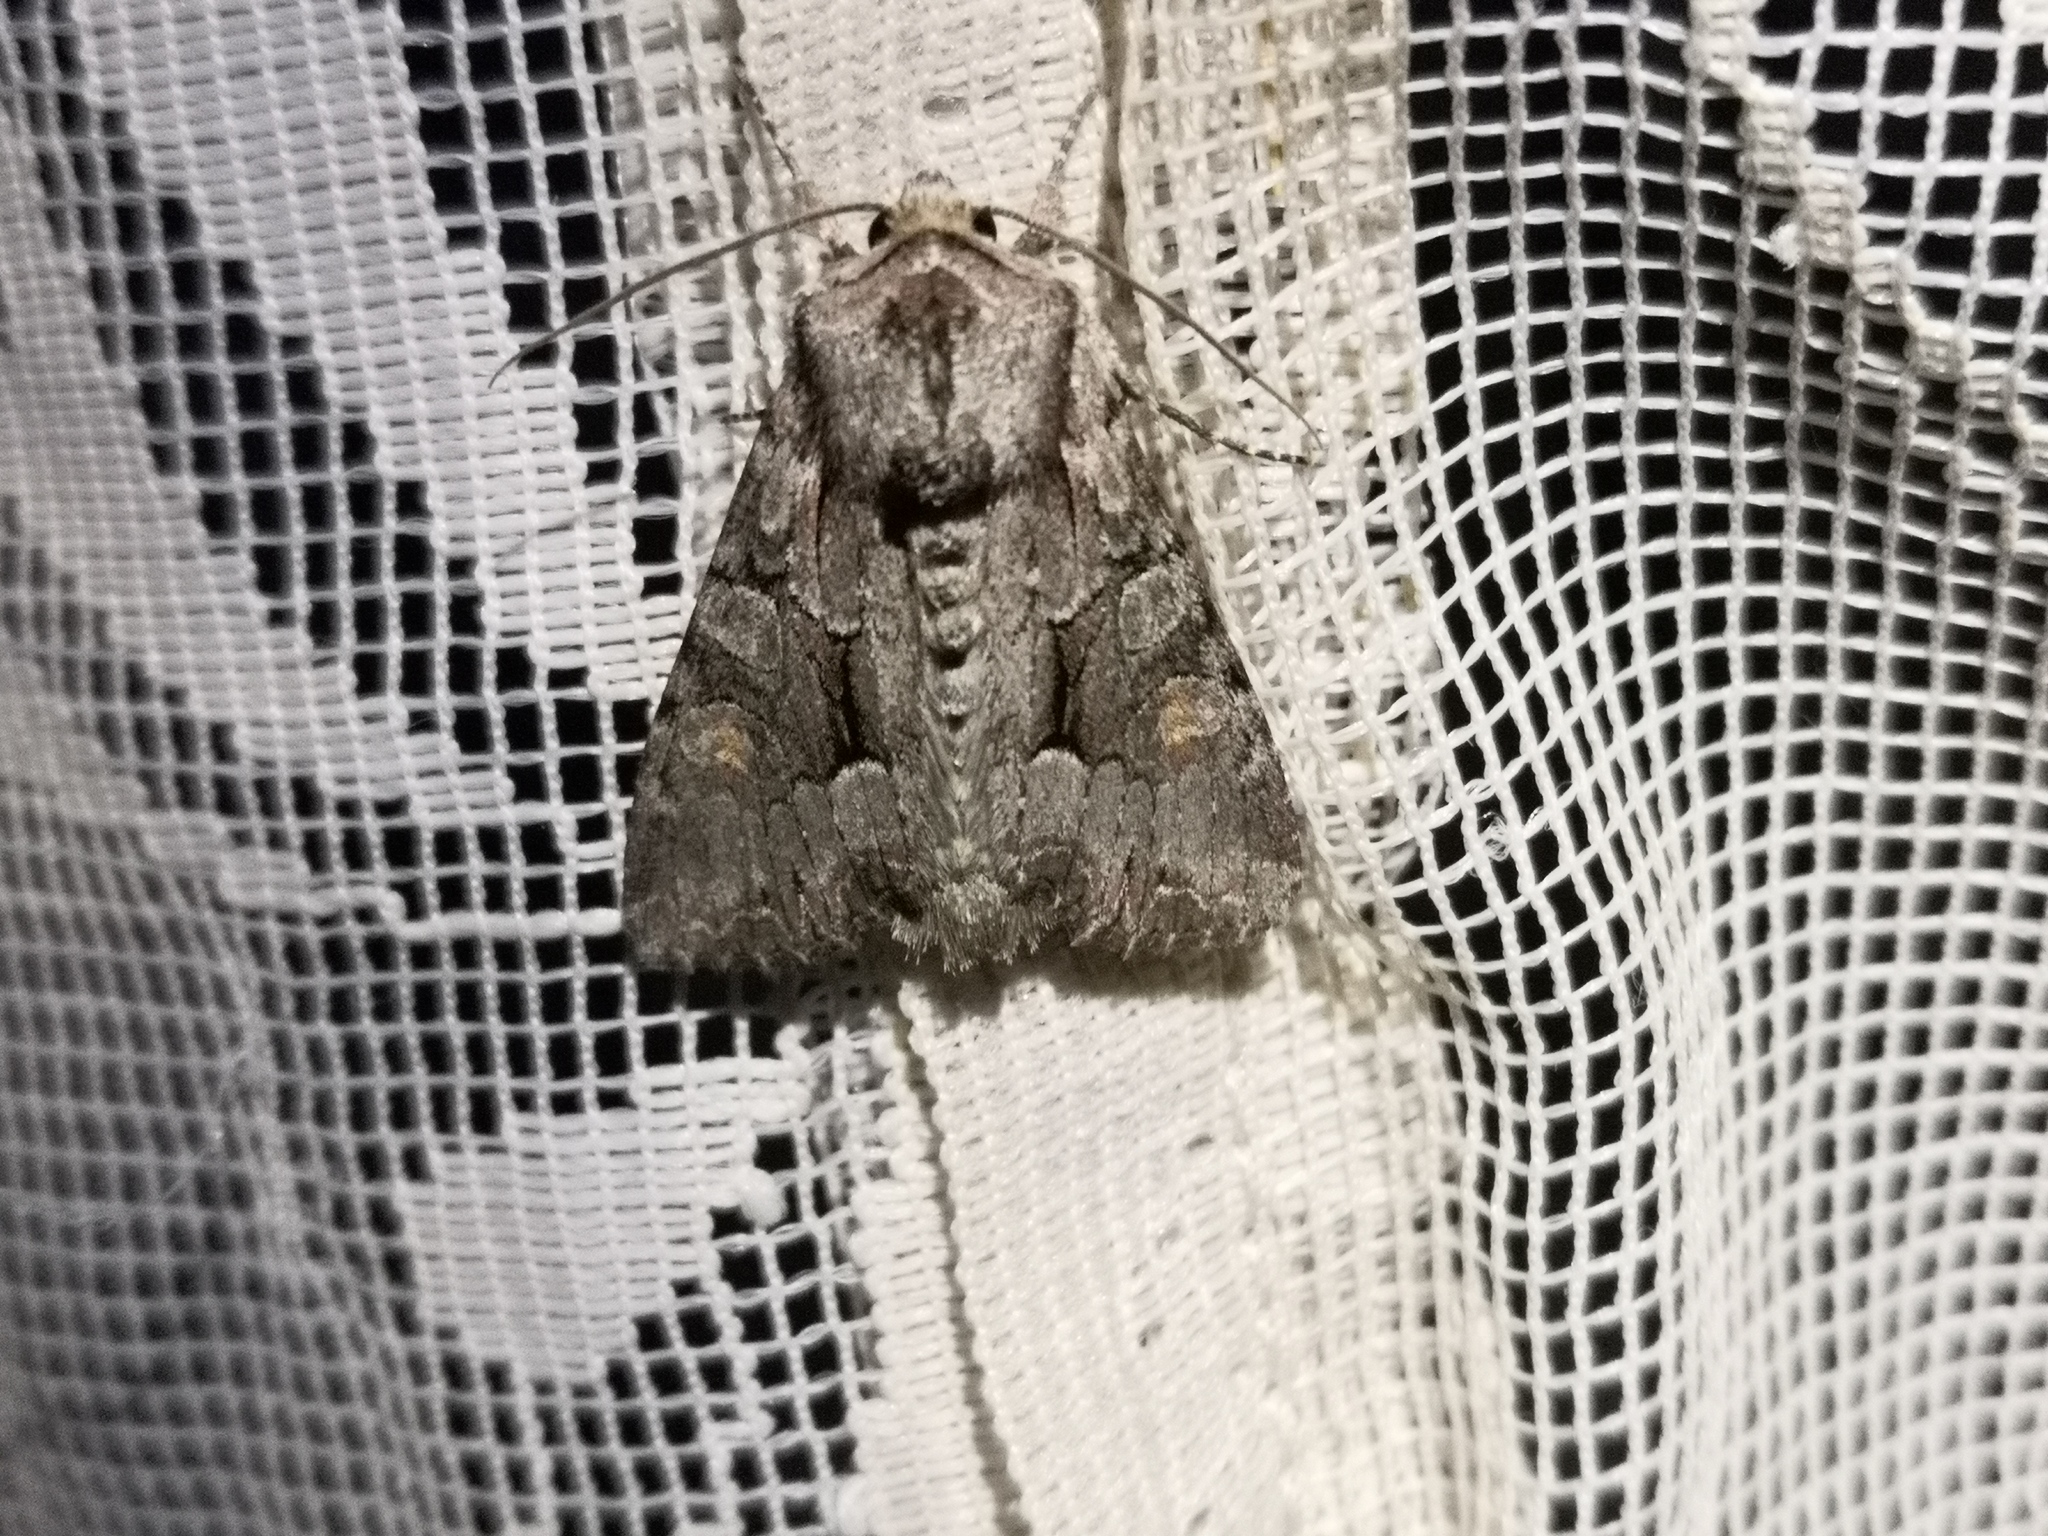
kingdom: Animalia
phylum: Arthropoda
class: Insecta
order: Lepidoptera
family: Noctuidae
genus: Lacanobia
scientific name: Lacanobia w-latinum
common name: Light brocade
